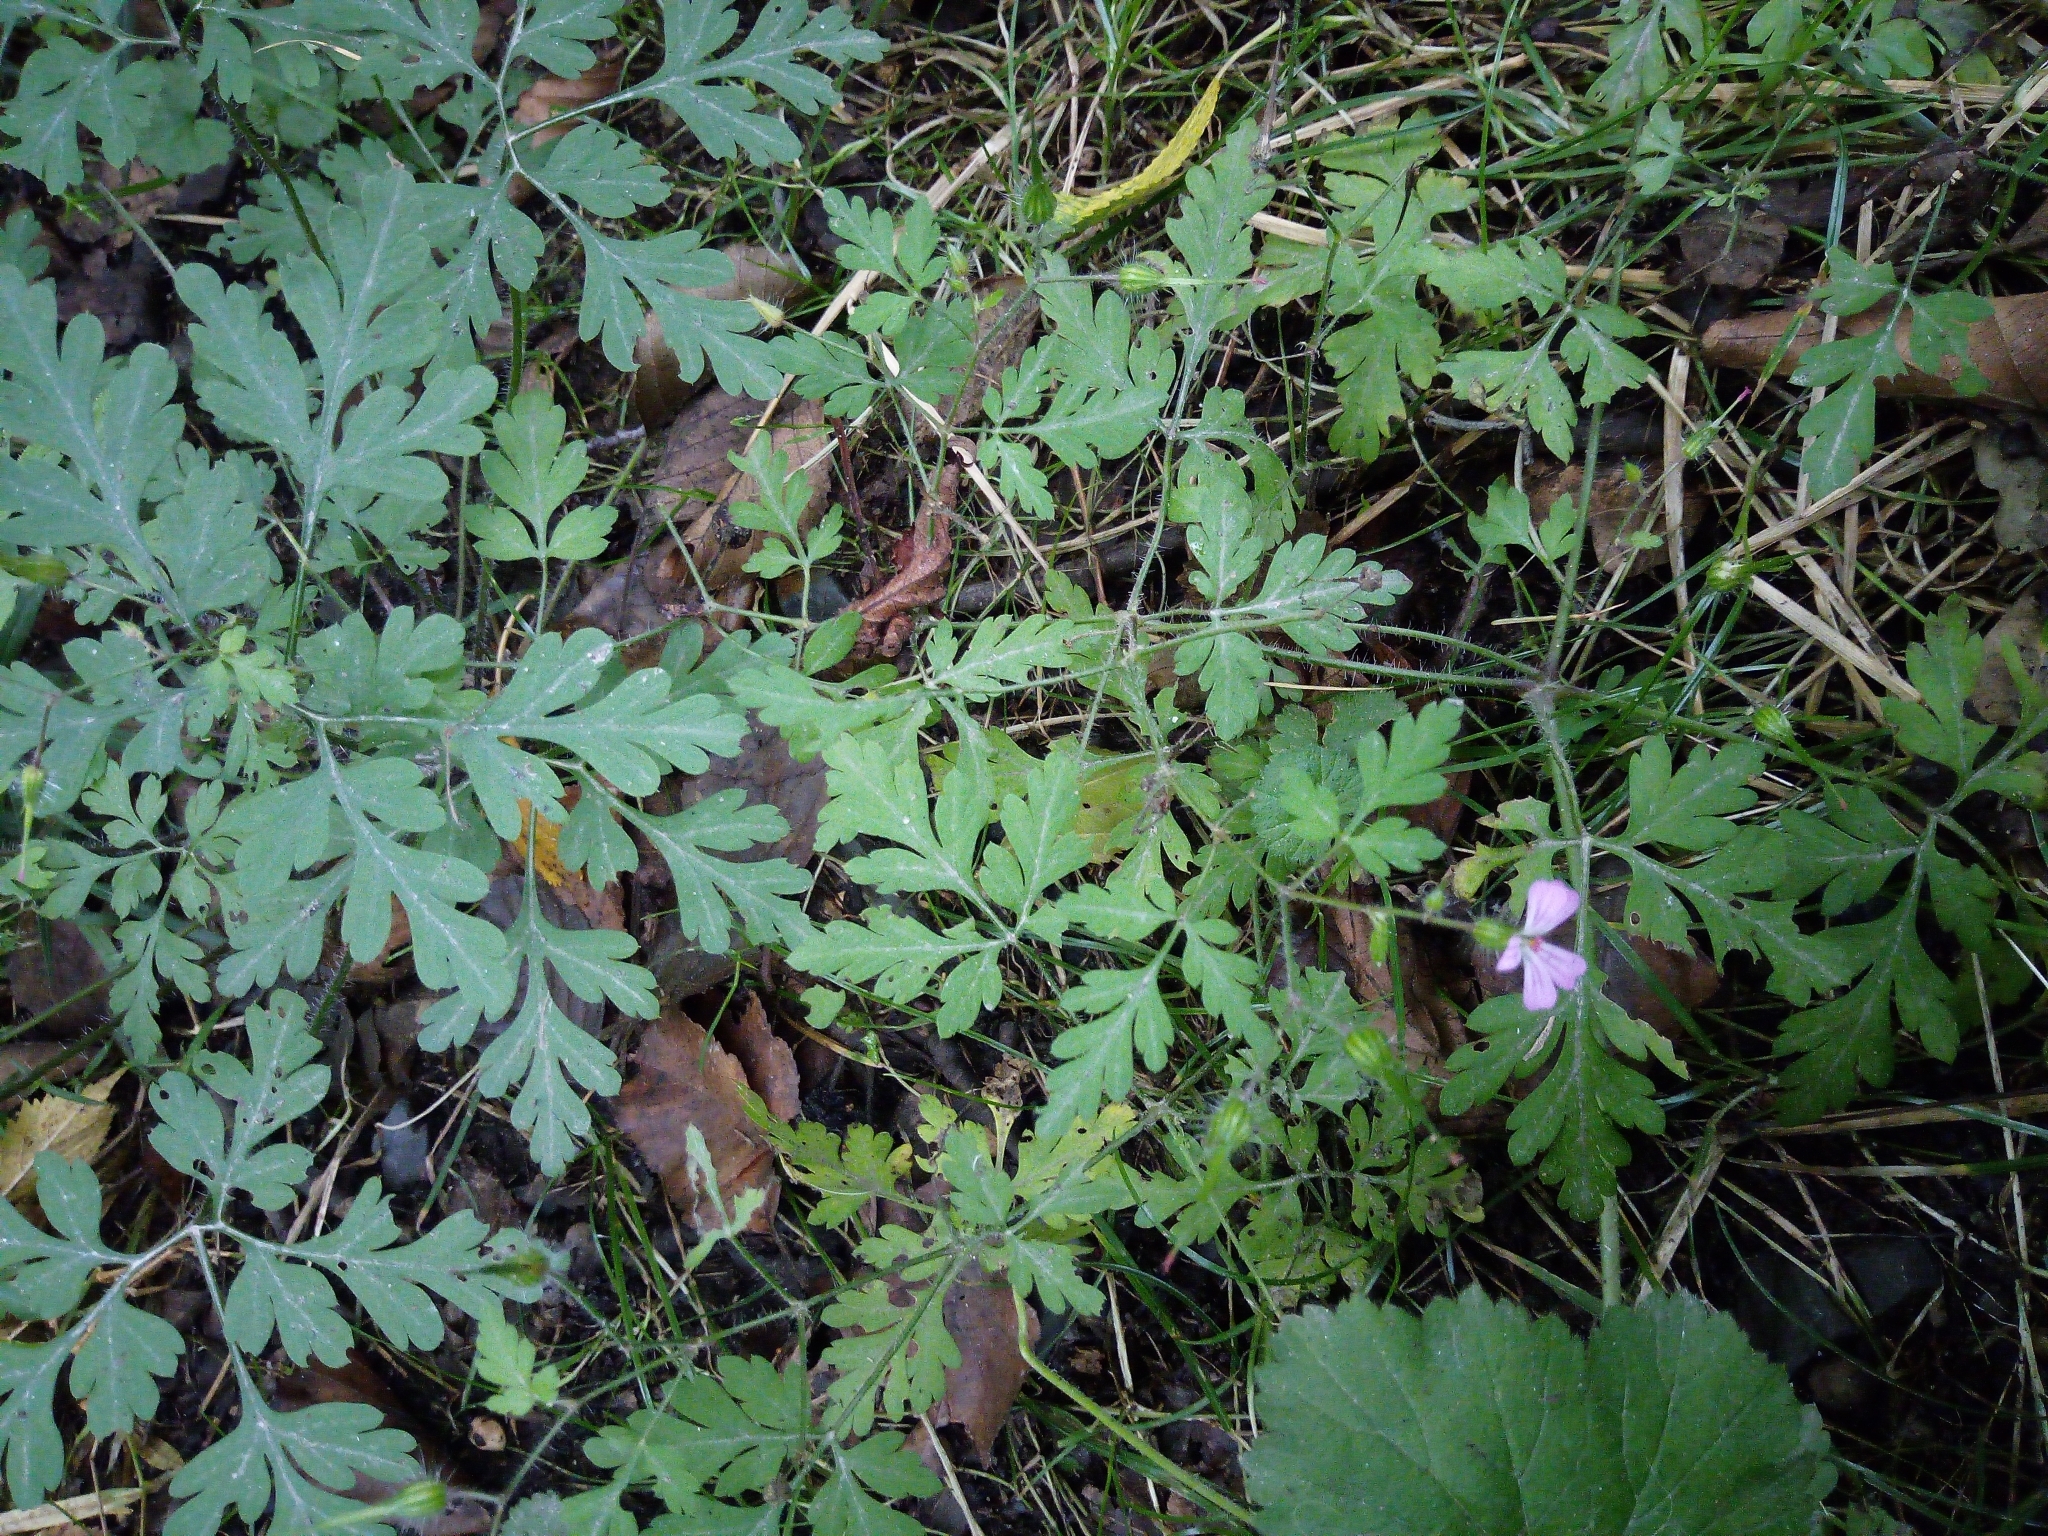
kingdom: Plantae
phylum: Tracheophyta
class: Magnoliopsida
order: Geraniales
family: Geraniaceae
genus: Geranium
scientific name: Geranium robertianum
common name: Herb-robert
